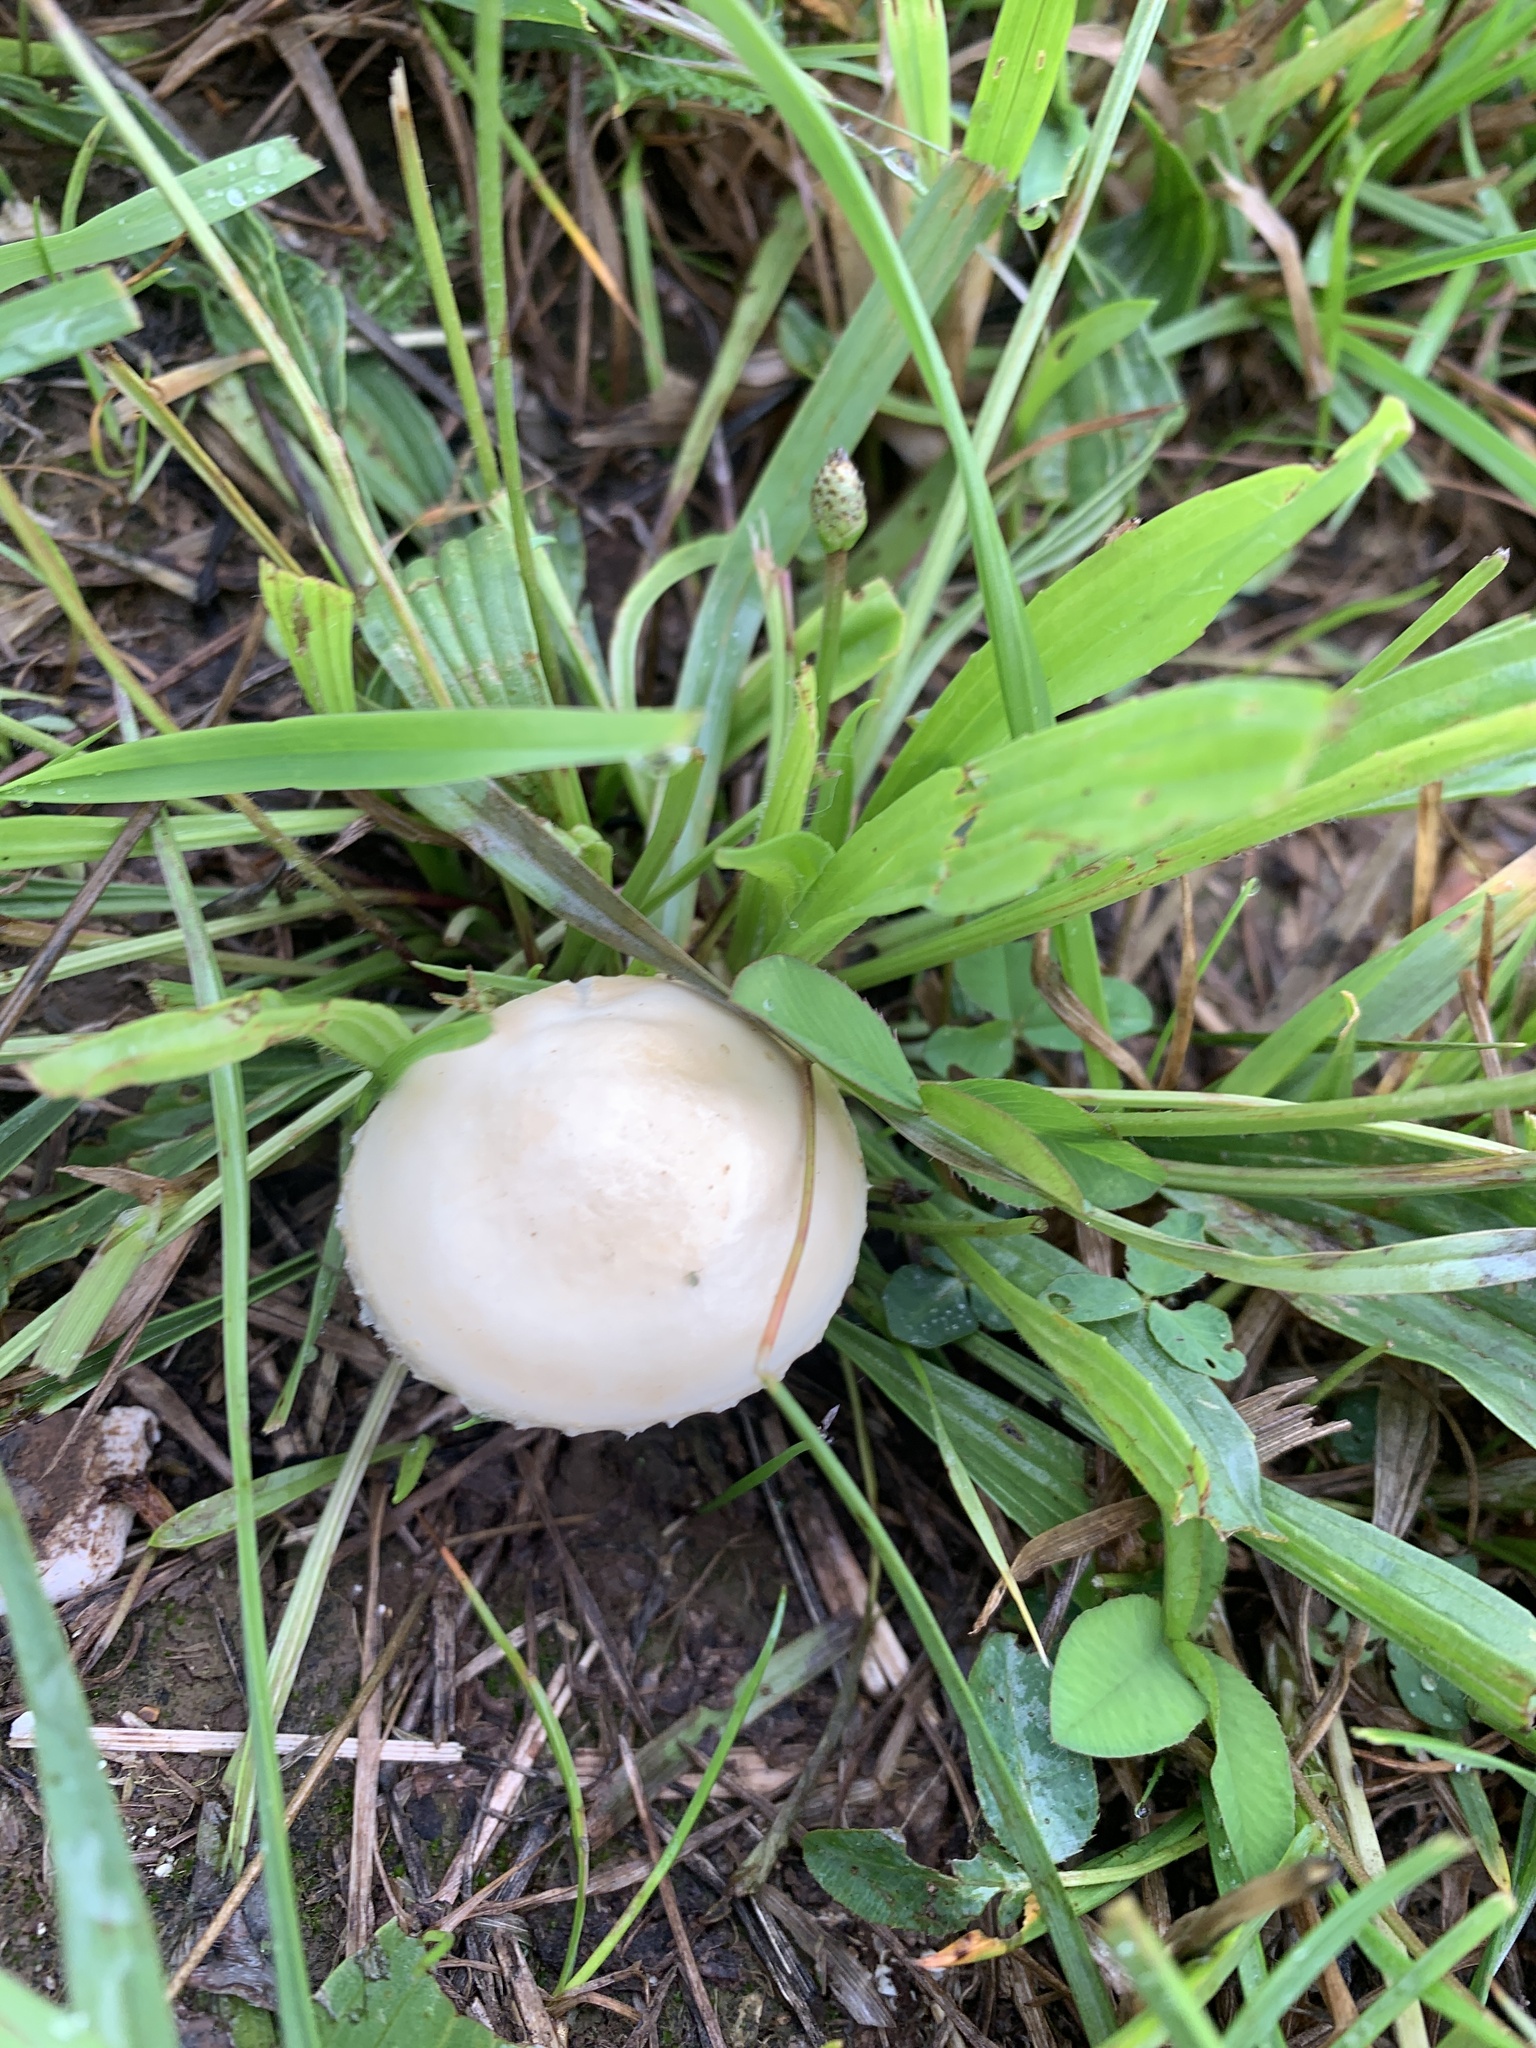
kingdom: Fungi
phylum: Basidiomycota
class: Agaricomycetes
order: Agaricales
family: Marasmiaceae
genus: Marasmius
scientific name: Marasmius oreades
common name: Fairy ring champignon
